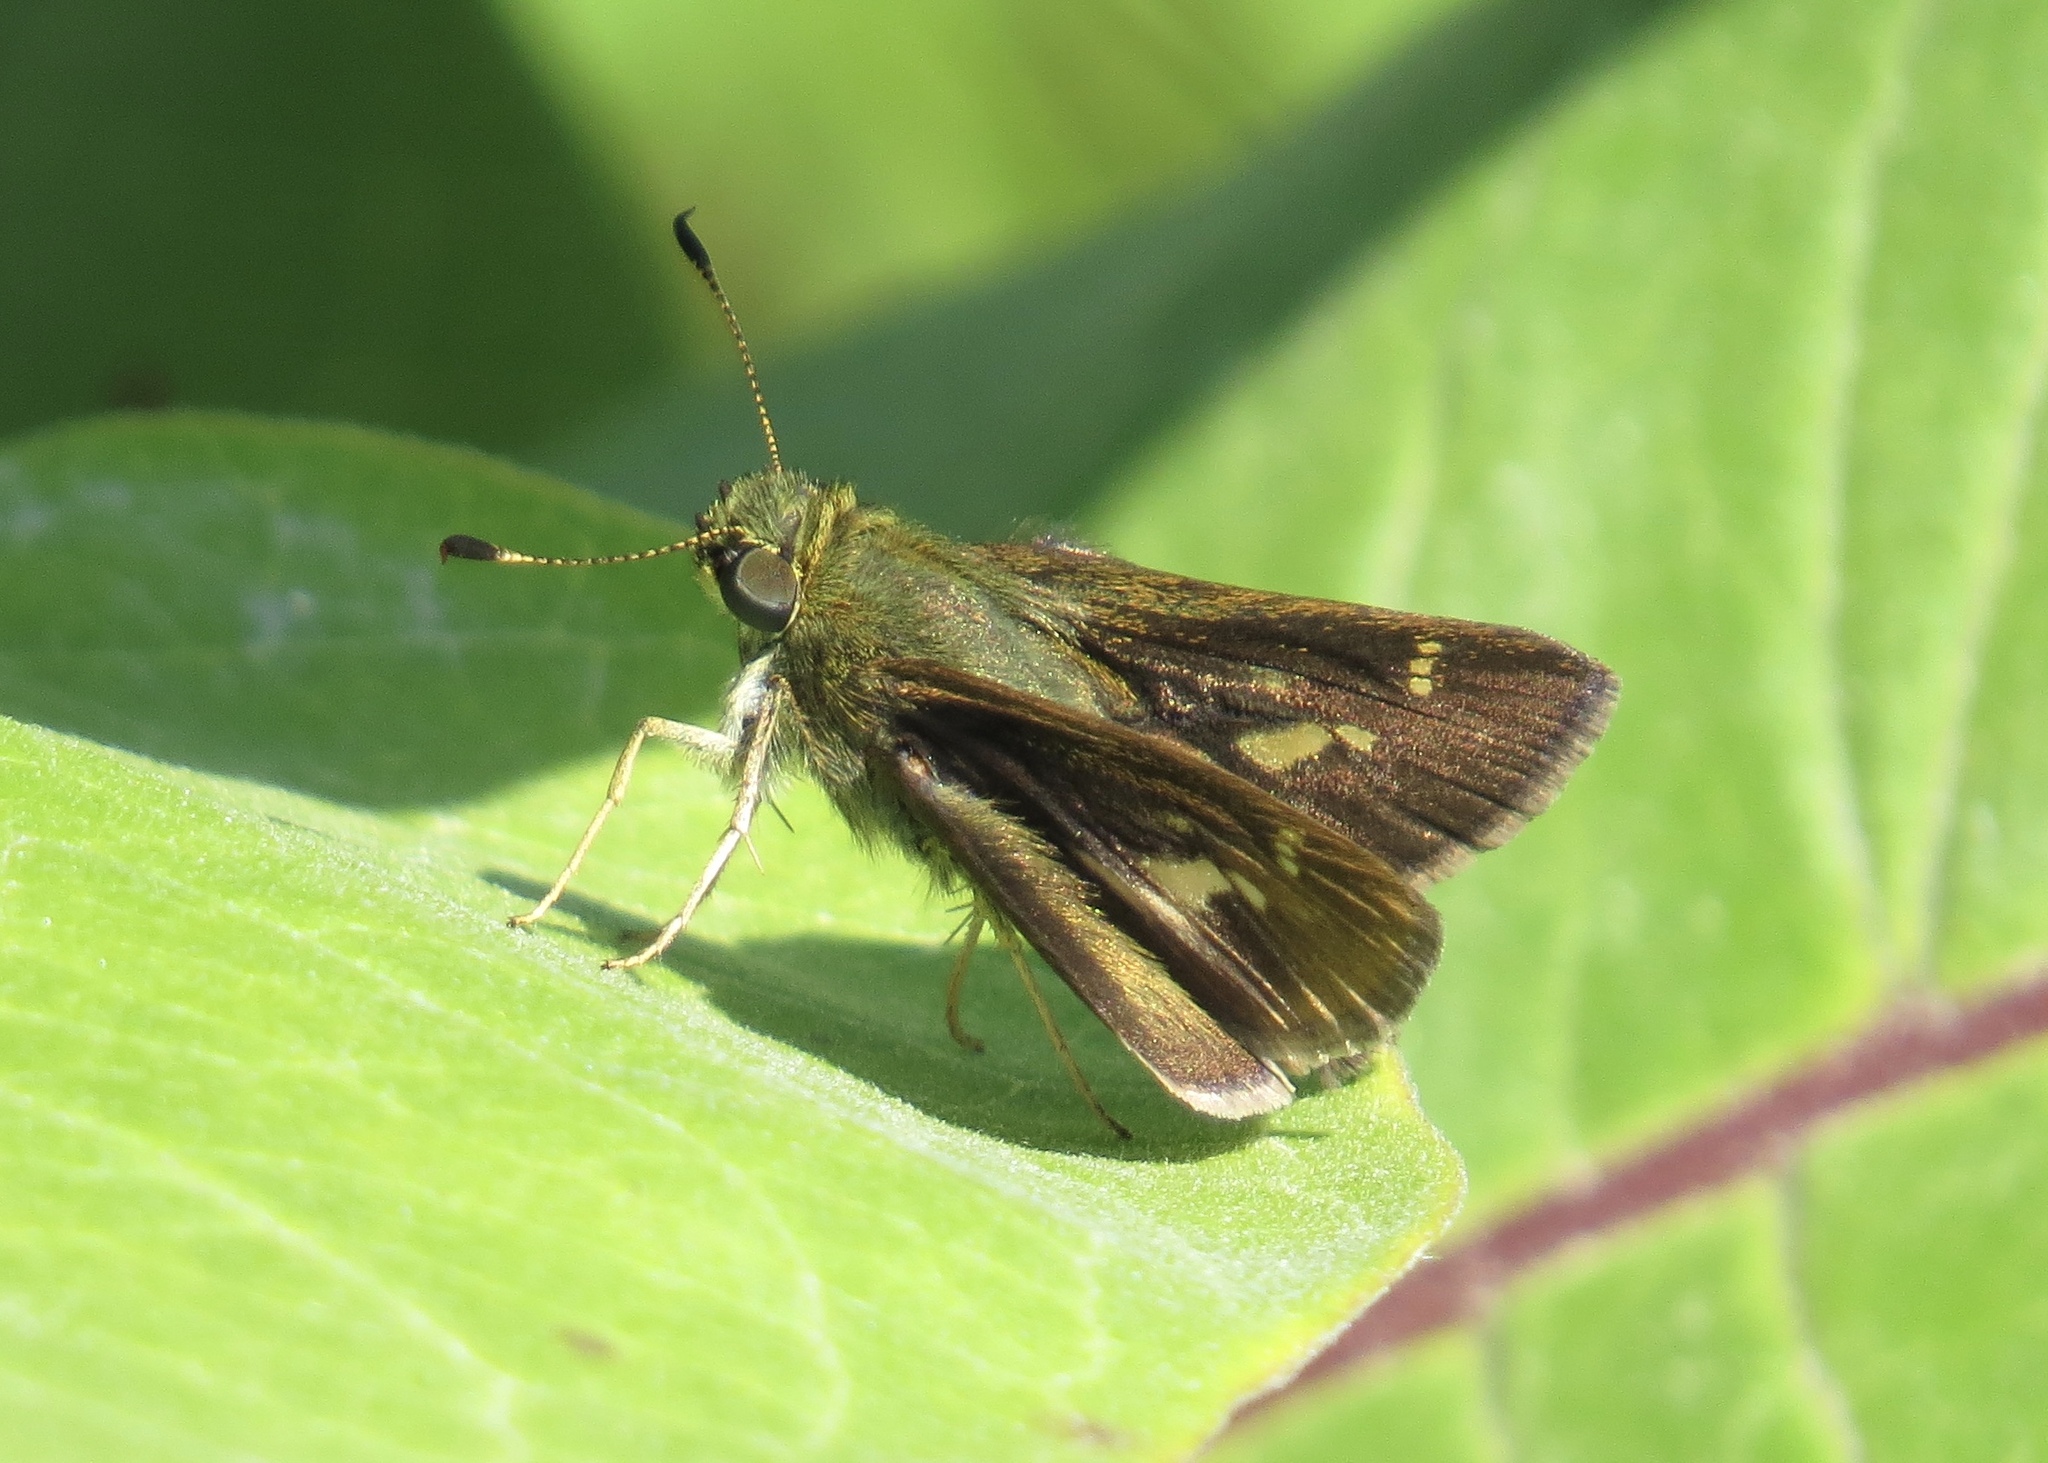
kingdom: Animalia
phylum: Arthropoda
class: Insecta
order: Lepidoptera
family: Hesperiidae
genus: Vernia
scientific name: Vernia verna
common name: Little glassywing
